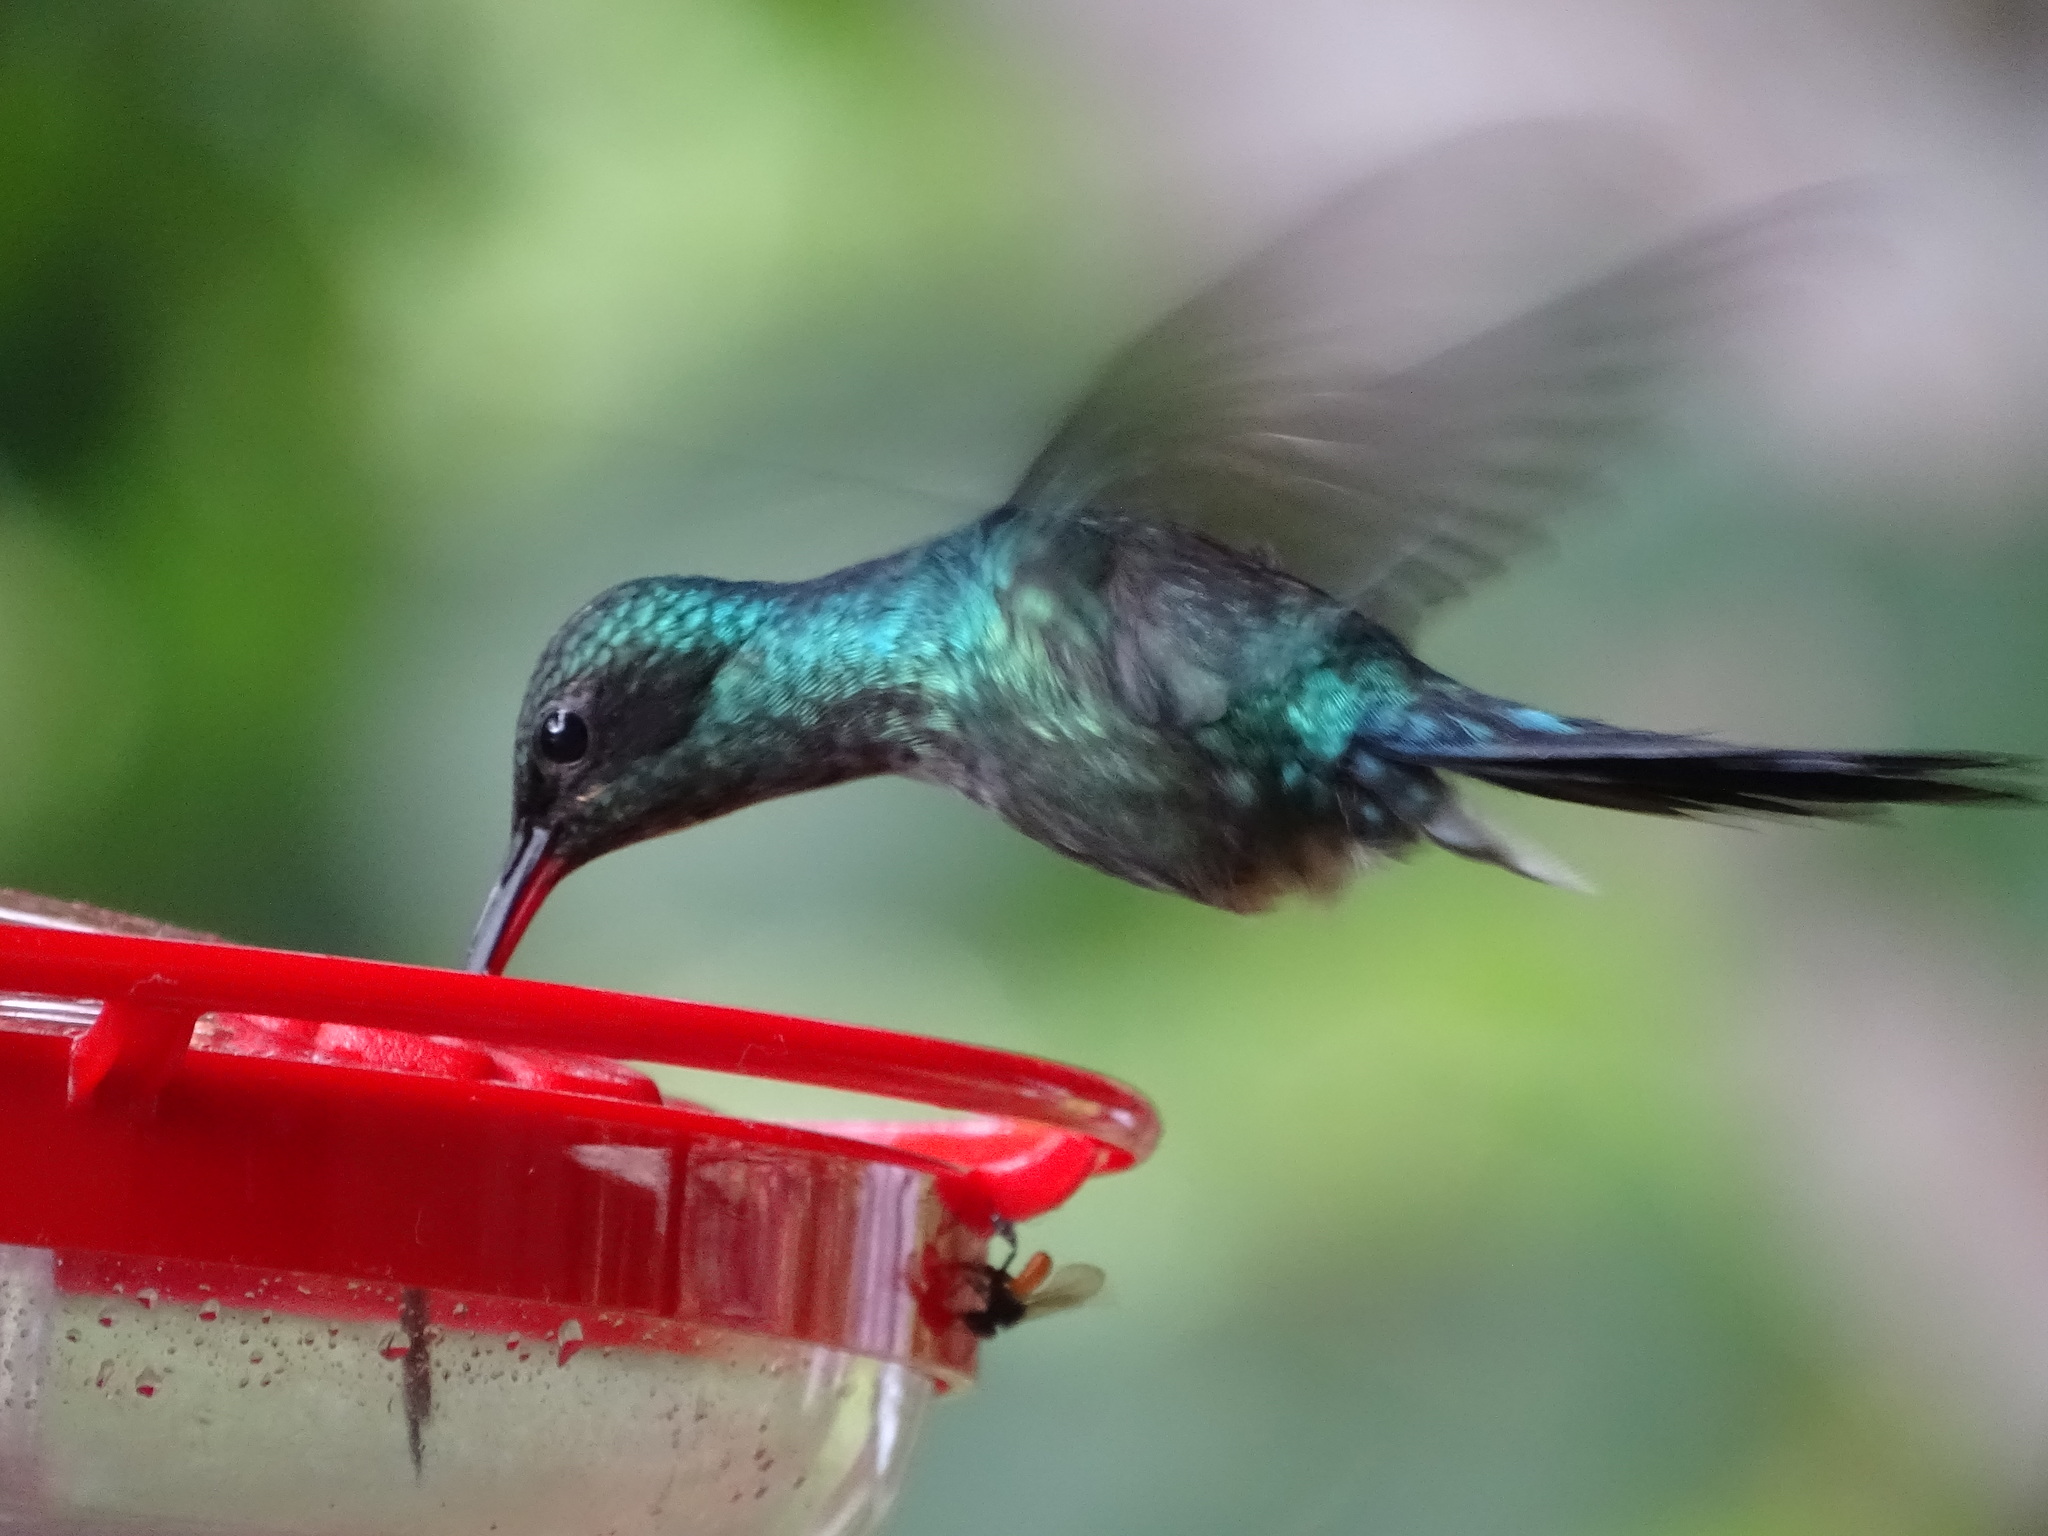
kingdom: Animalia
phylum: Chordata
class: Aves
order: Apodiformes
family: Trochilidae
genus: Phaethornis
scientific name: Phaethornis guy
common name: Green hermit
